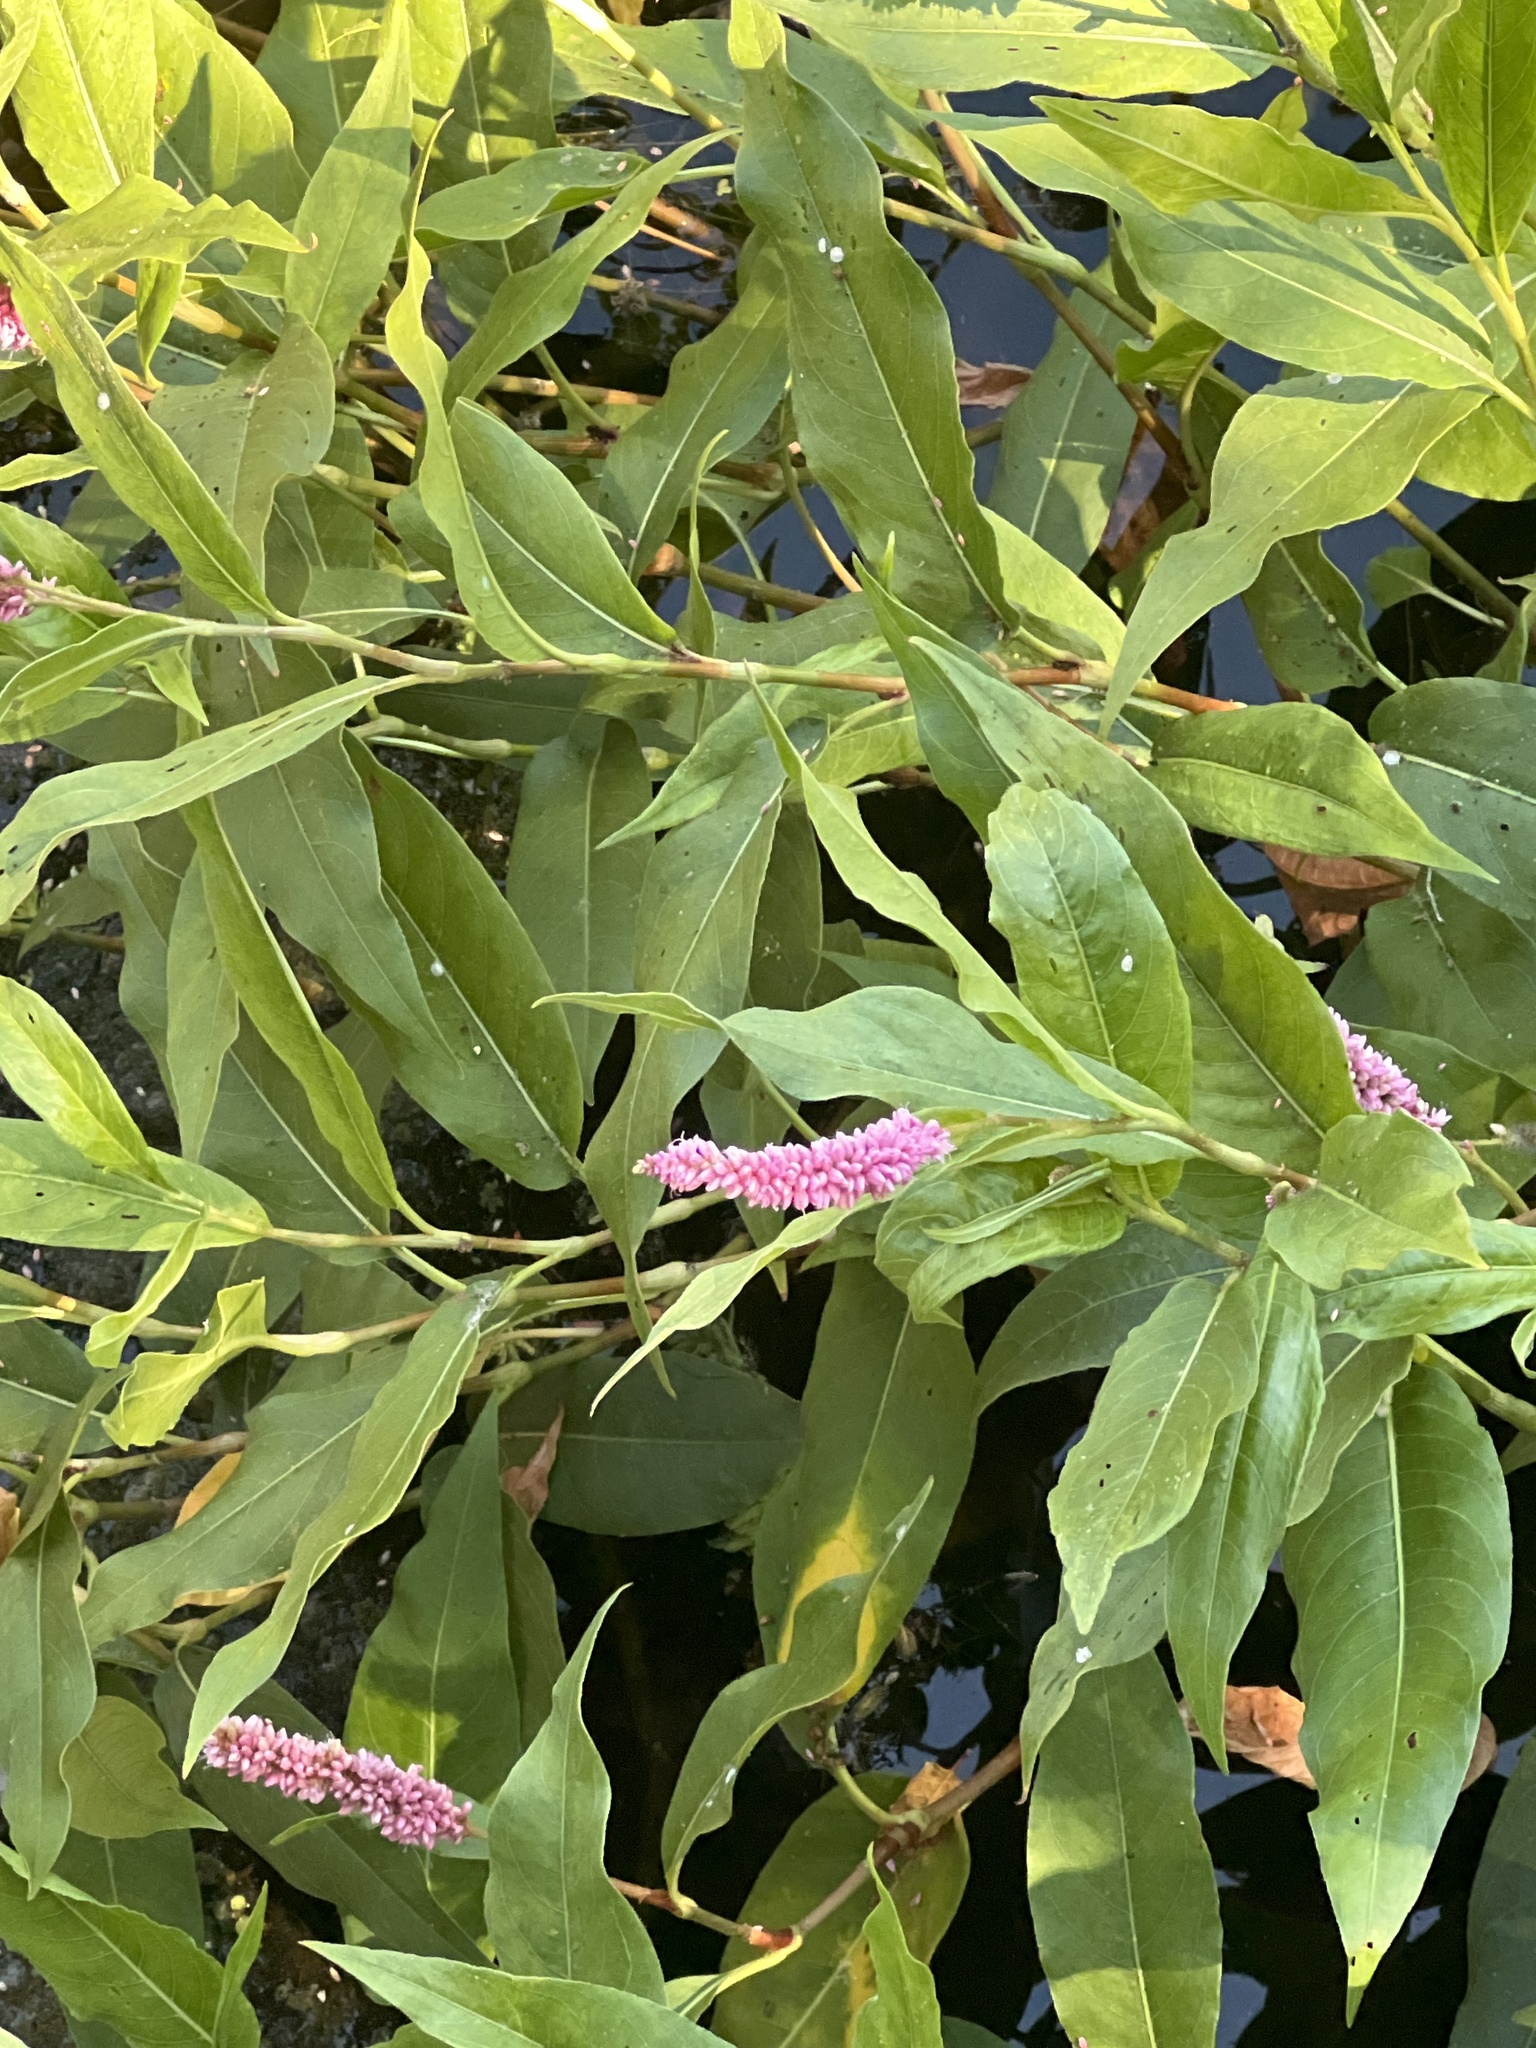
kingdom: Plantae
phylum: Tracheophyta
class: Magnoliopsida
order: Caryophyllales
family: Polygonaceae
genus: Persicaria
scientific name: Persicaria amphibia
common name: Amphibious bistort
